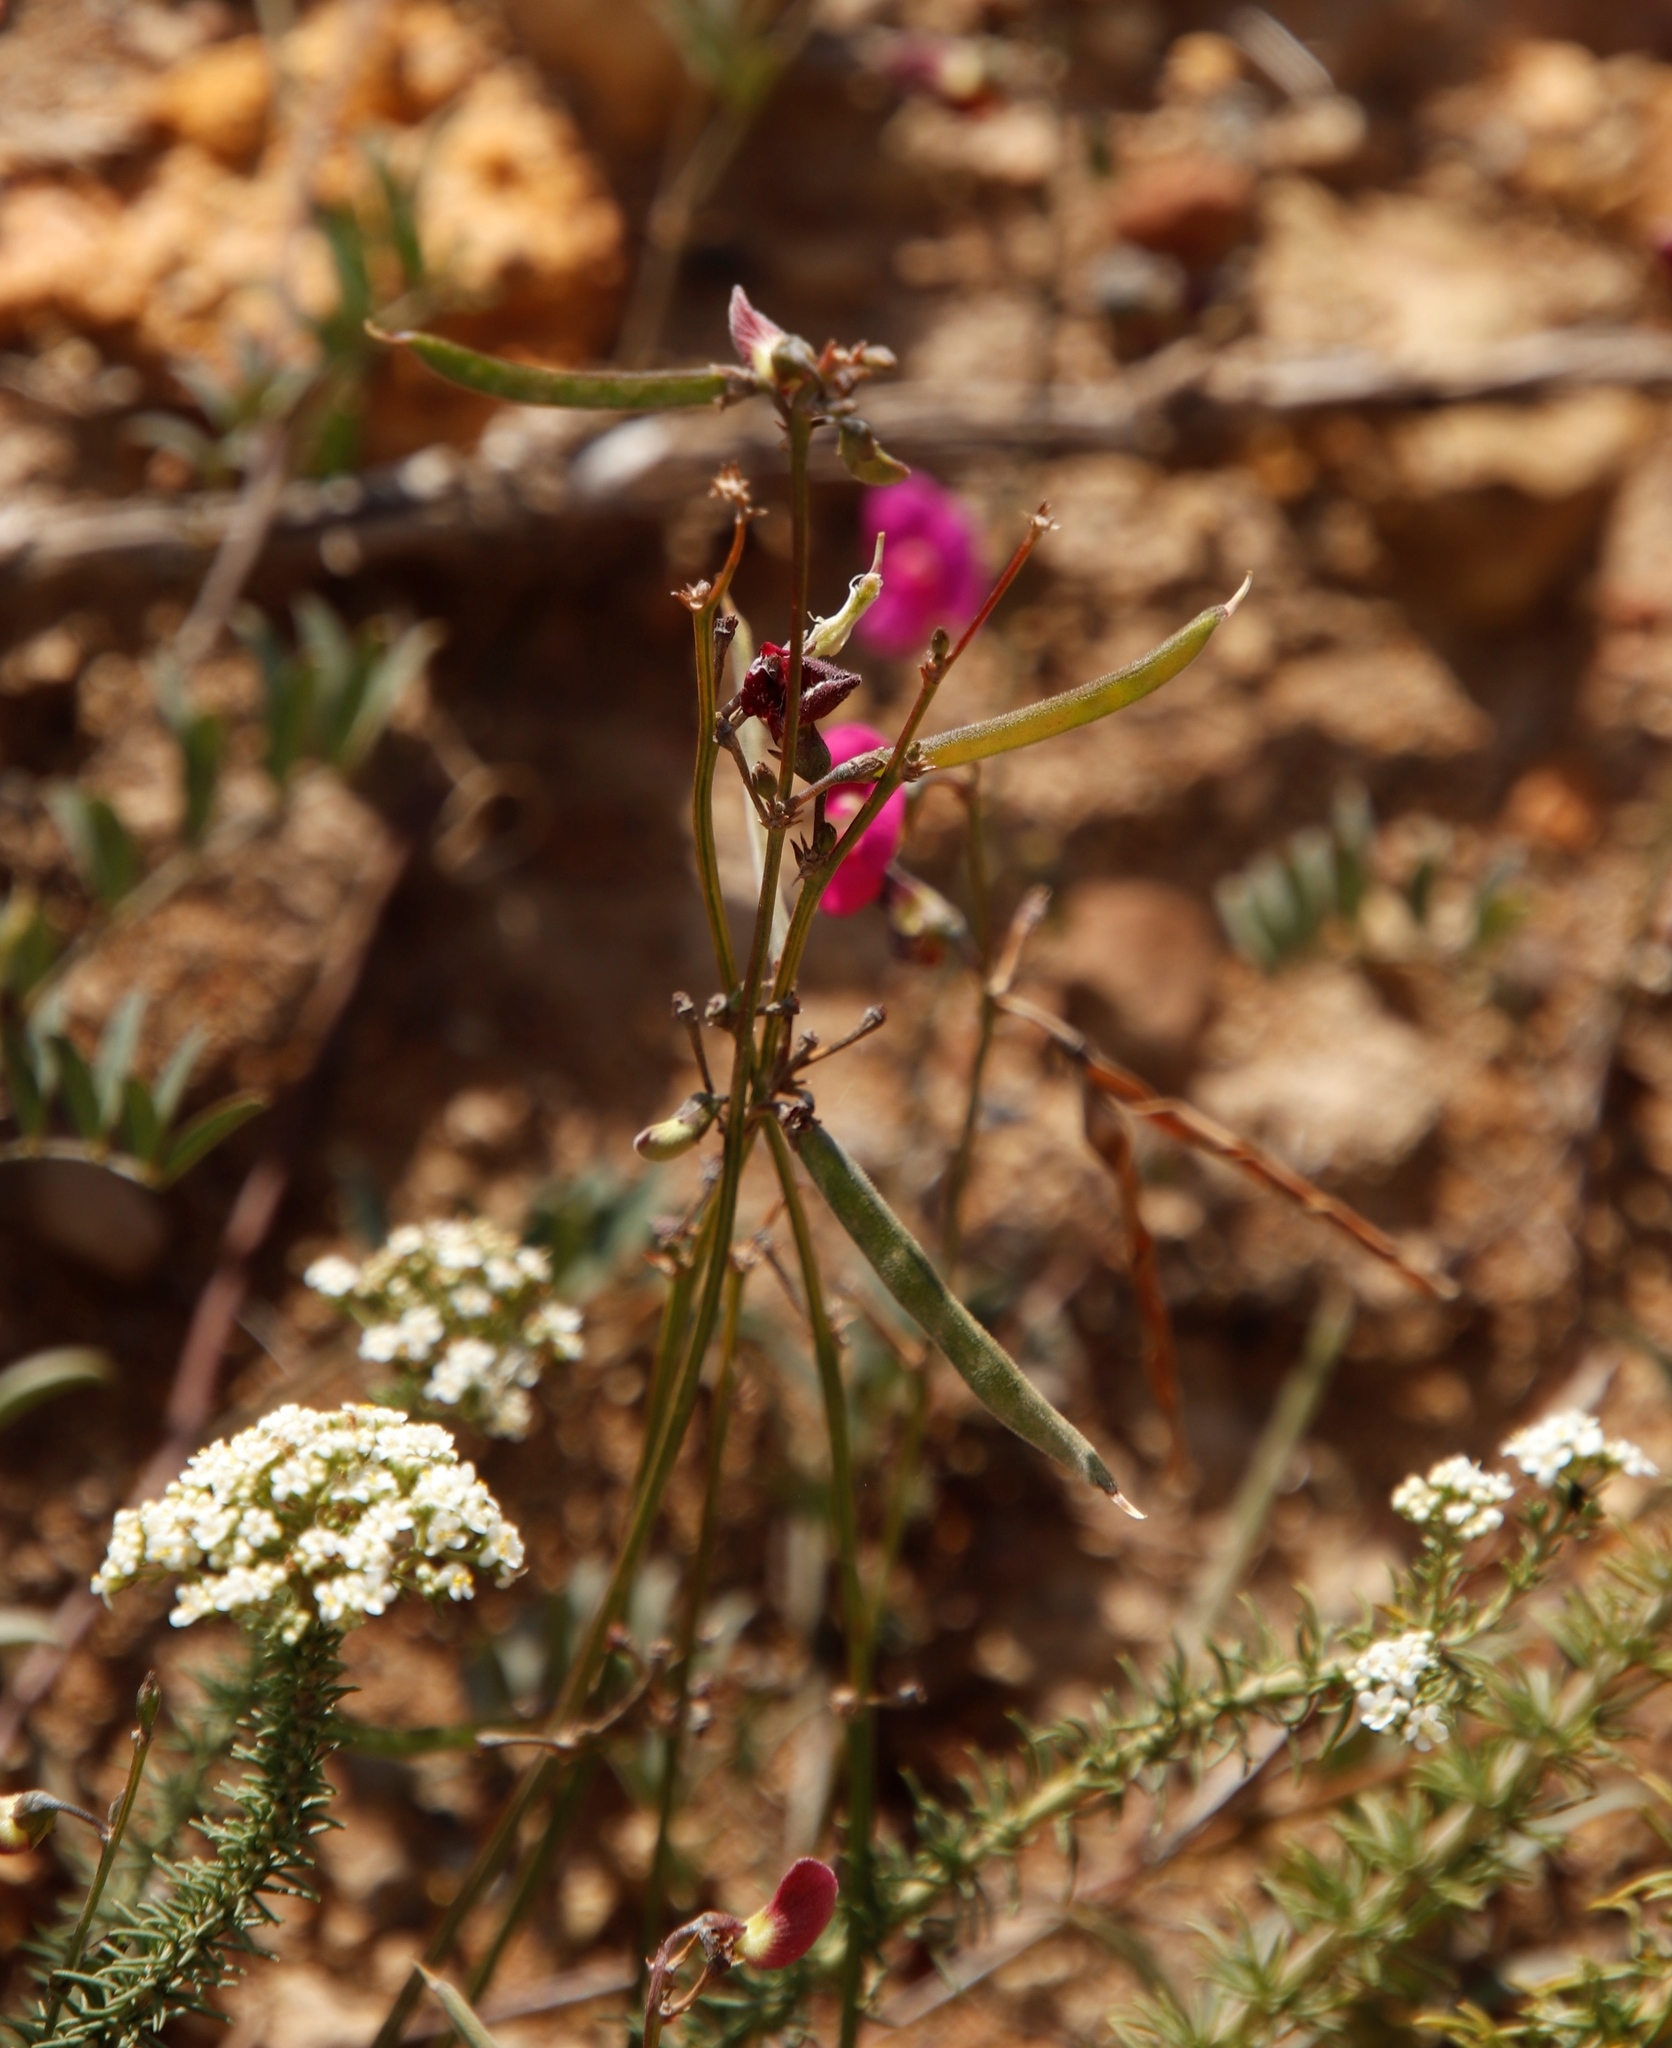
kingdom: Plantae
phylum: Tracheophyta
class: Magnoliopsida
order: Fabales
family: Fabaceae
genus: Tephrosia
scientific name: Tephrosia capensis
